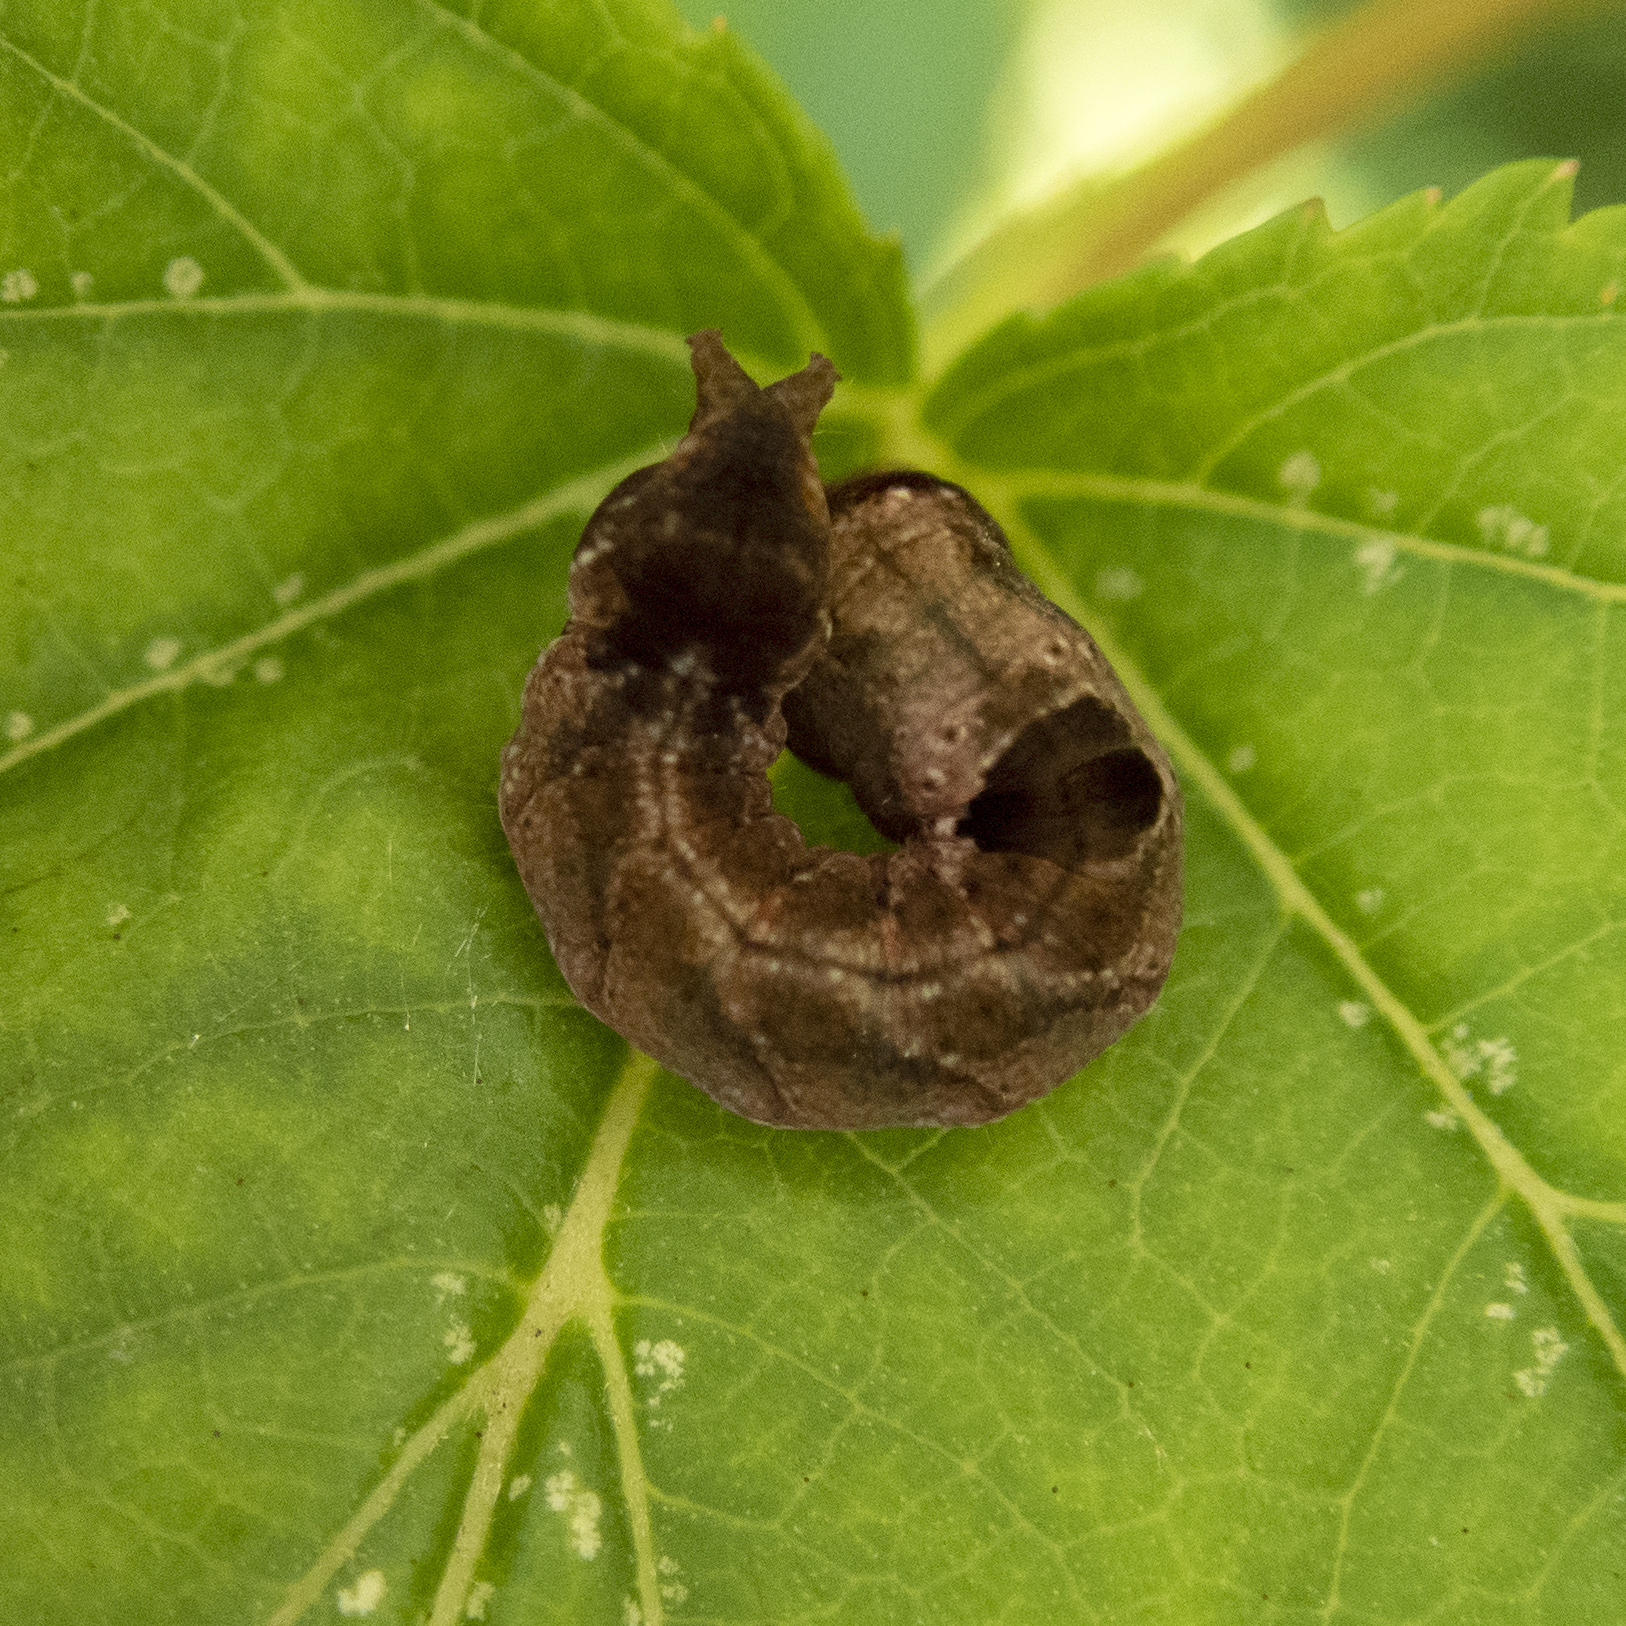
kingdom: Animalia
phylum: Arthropoda
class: Insecta
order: Lepidoptera
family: Drepanidae
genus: Pseudothyatira
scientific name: Pseudothyatira cymatophoroides
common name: Tufted thyatirid moth
